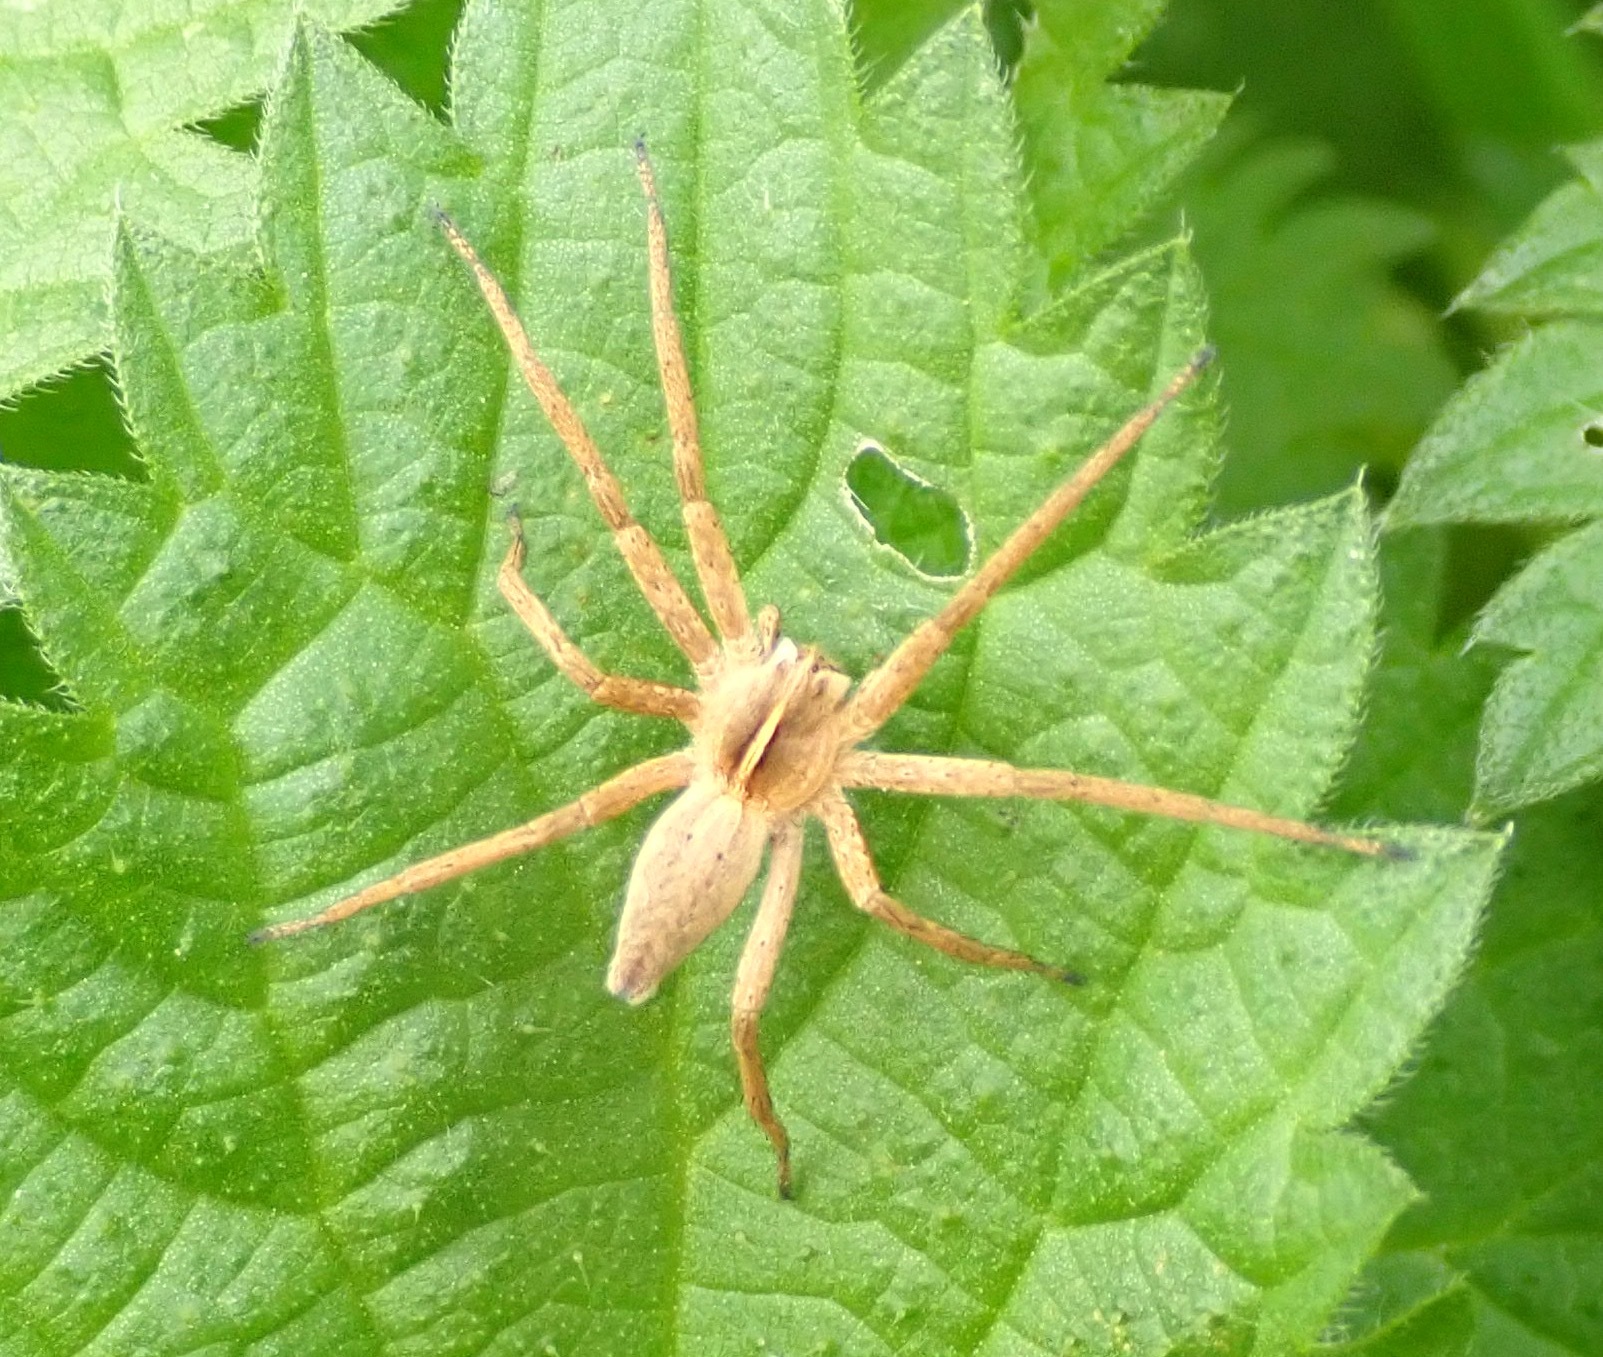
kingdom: Animalia
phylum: Arthropoda
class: Arachnida
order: Araneae
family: Pisauridae
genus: Pisaura
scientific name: Pisaura mirabilis
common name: Tent spider
